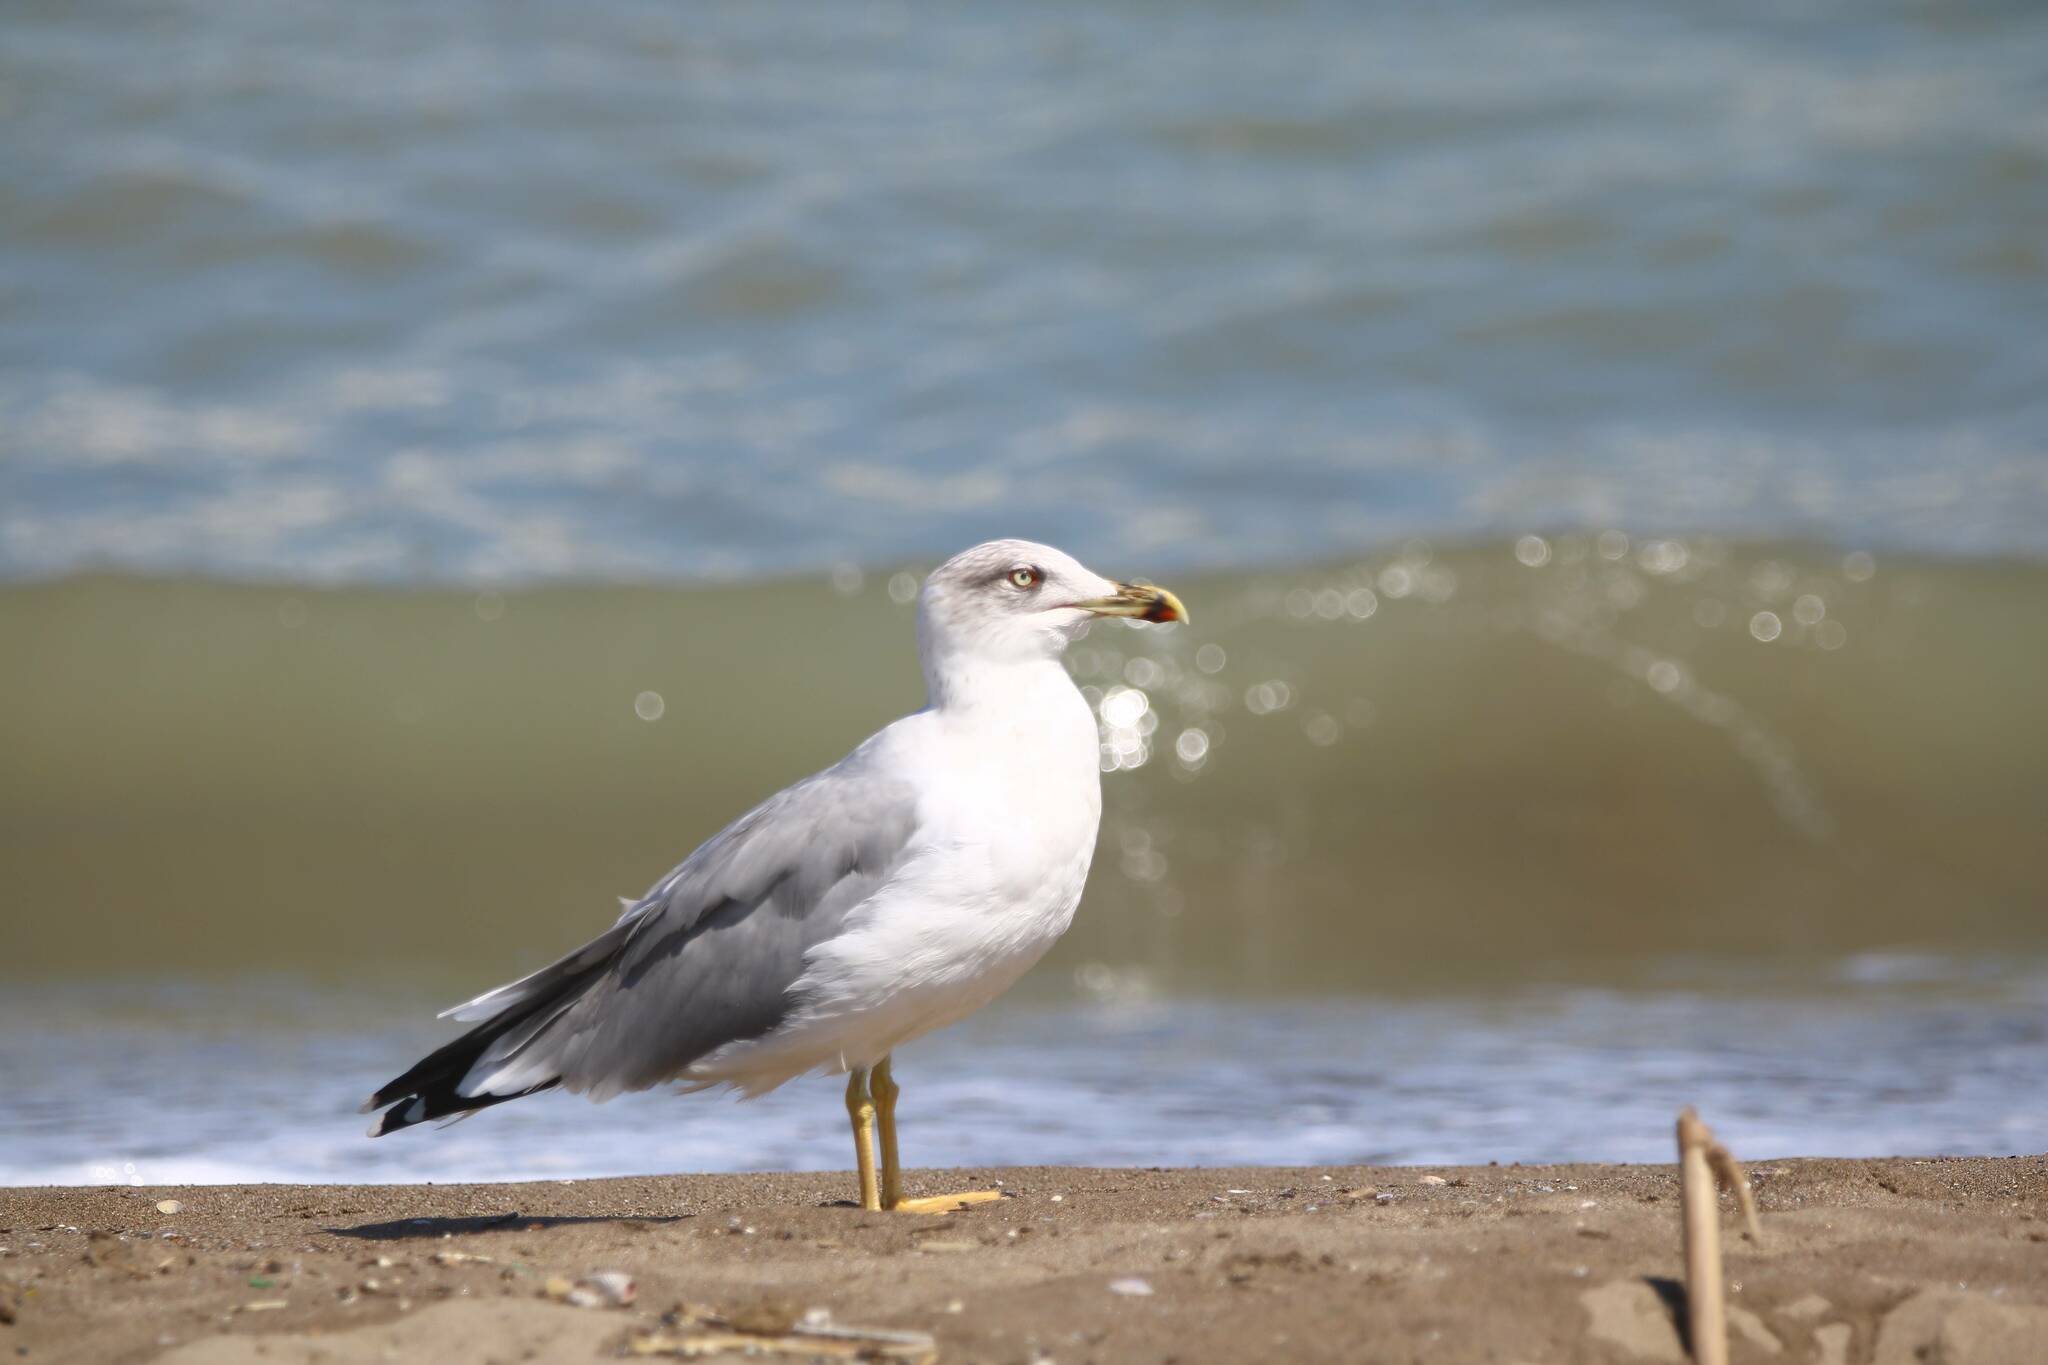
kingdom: Animalia
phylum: Chordata
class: Aves
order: Charadriiformes
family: Laridae
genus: Larus
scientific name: Larus michahellis
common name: Yellow-legged gull
